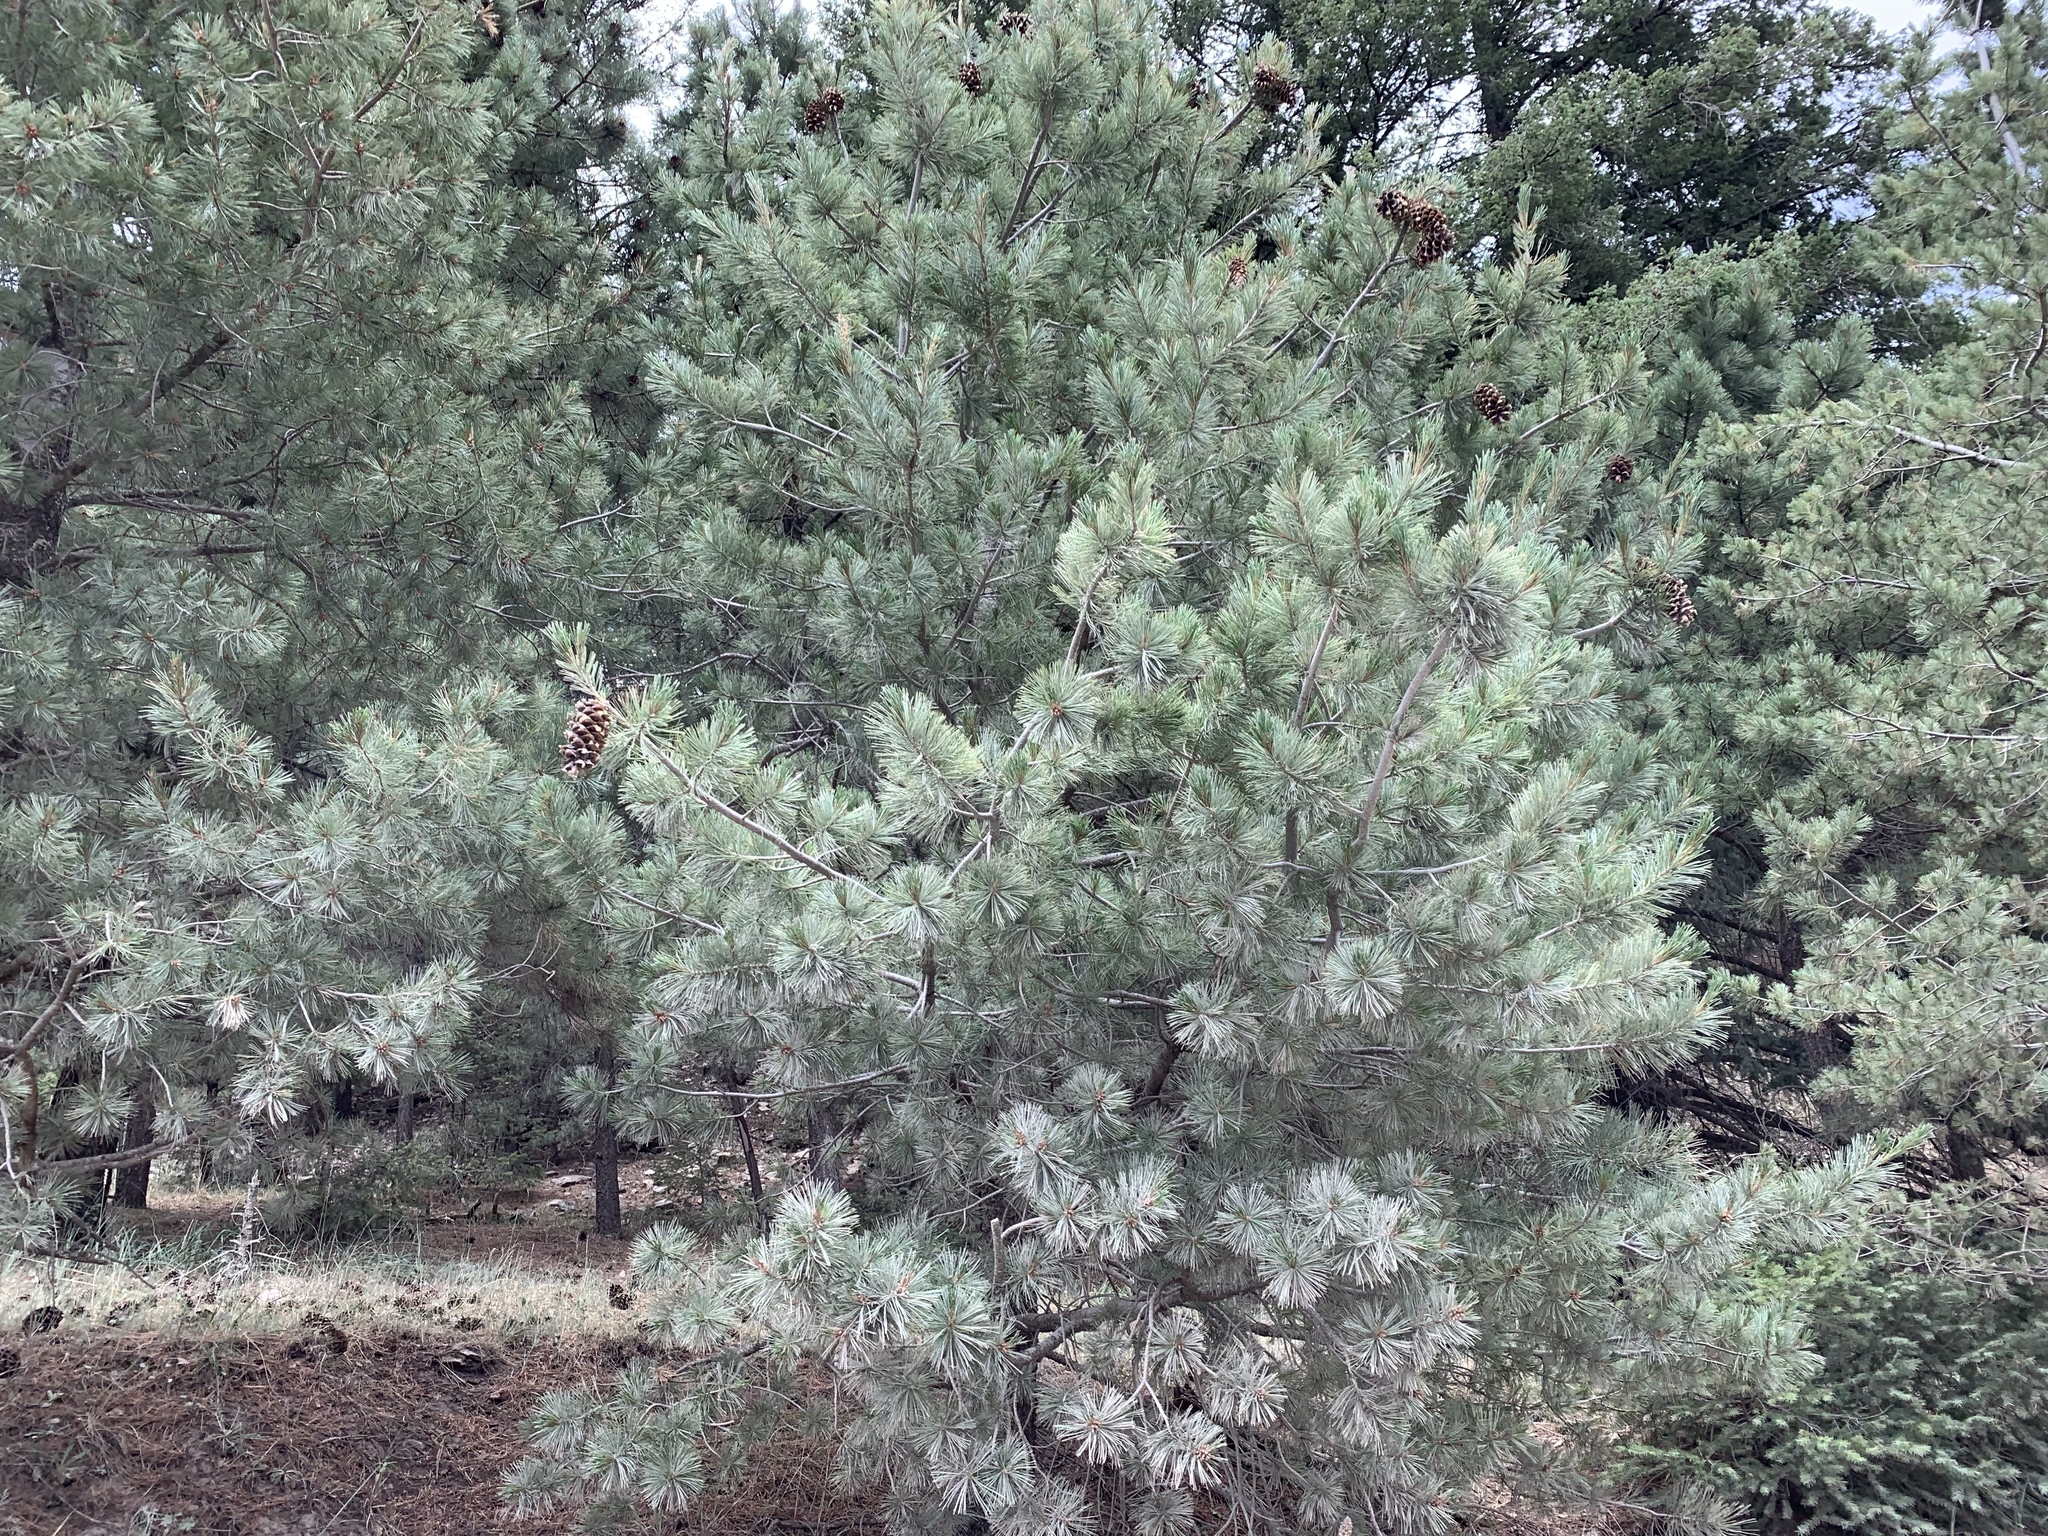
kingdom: Plantae
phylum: Tracheophyta
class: Pinopsida
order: Pinales
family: Pinaceae
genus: Pinus
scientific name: Pinus strobiformis
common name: Southwestern white pine
